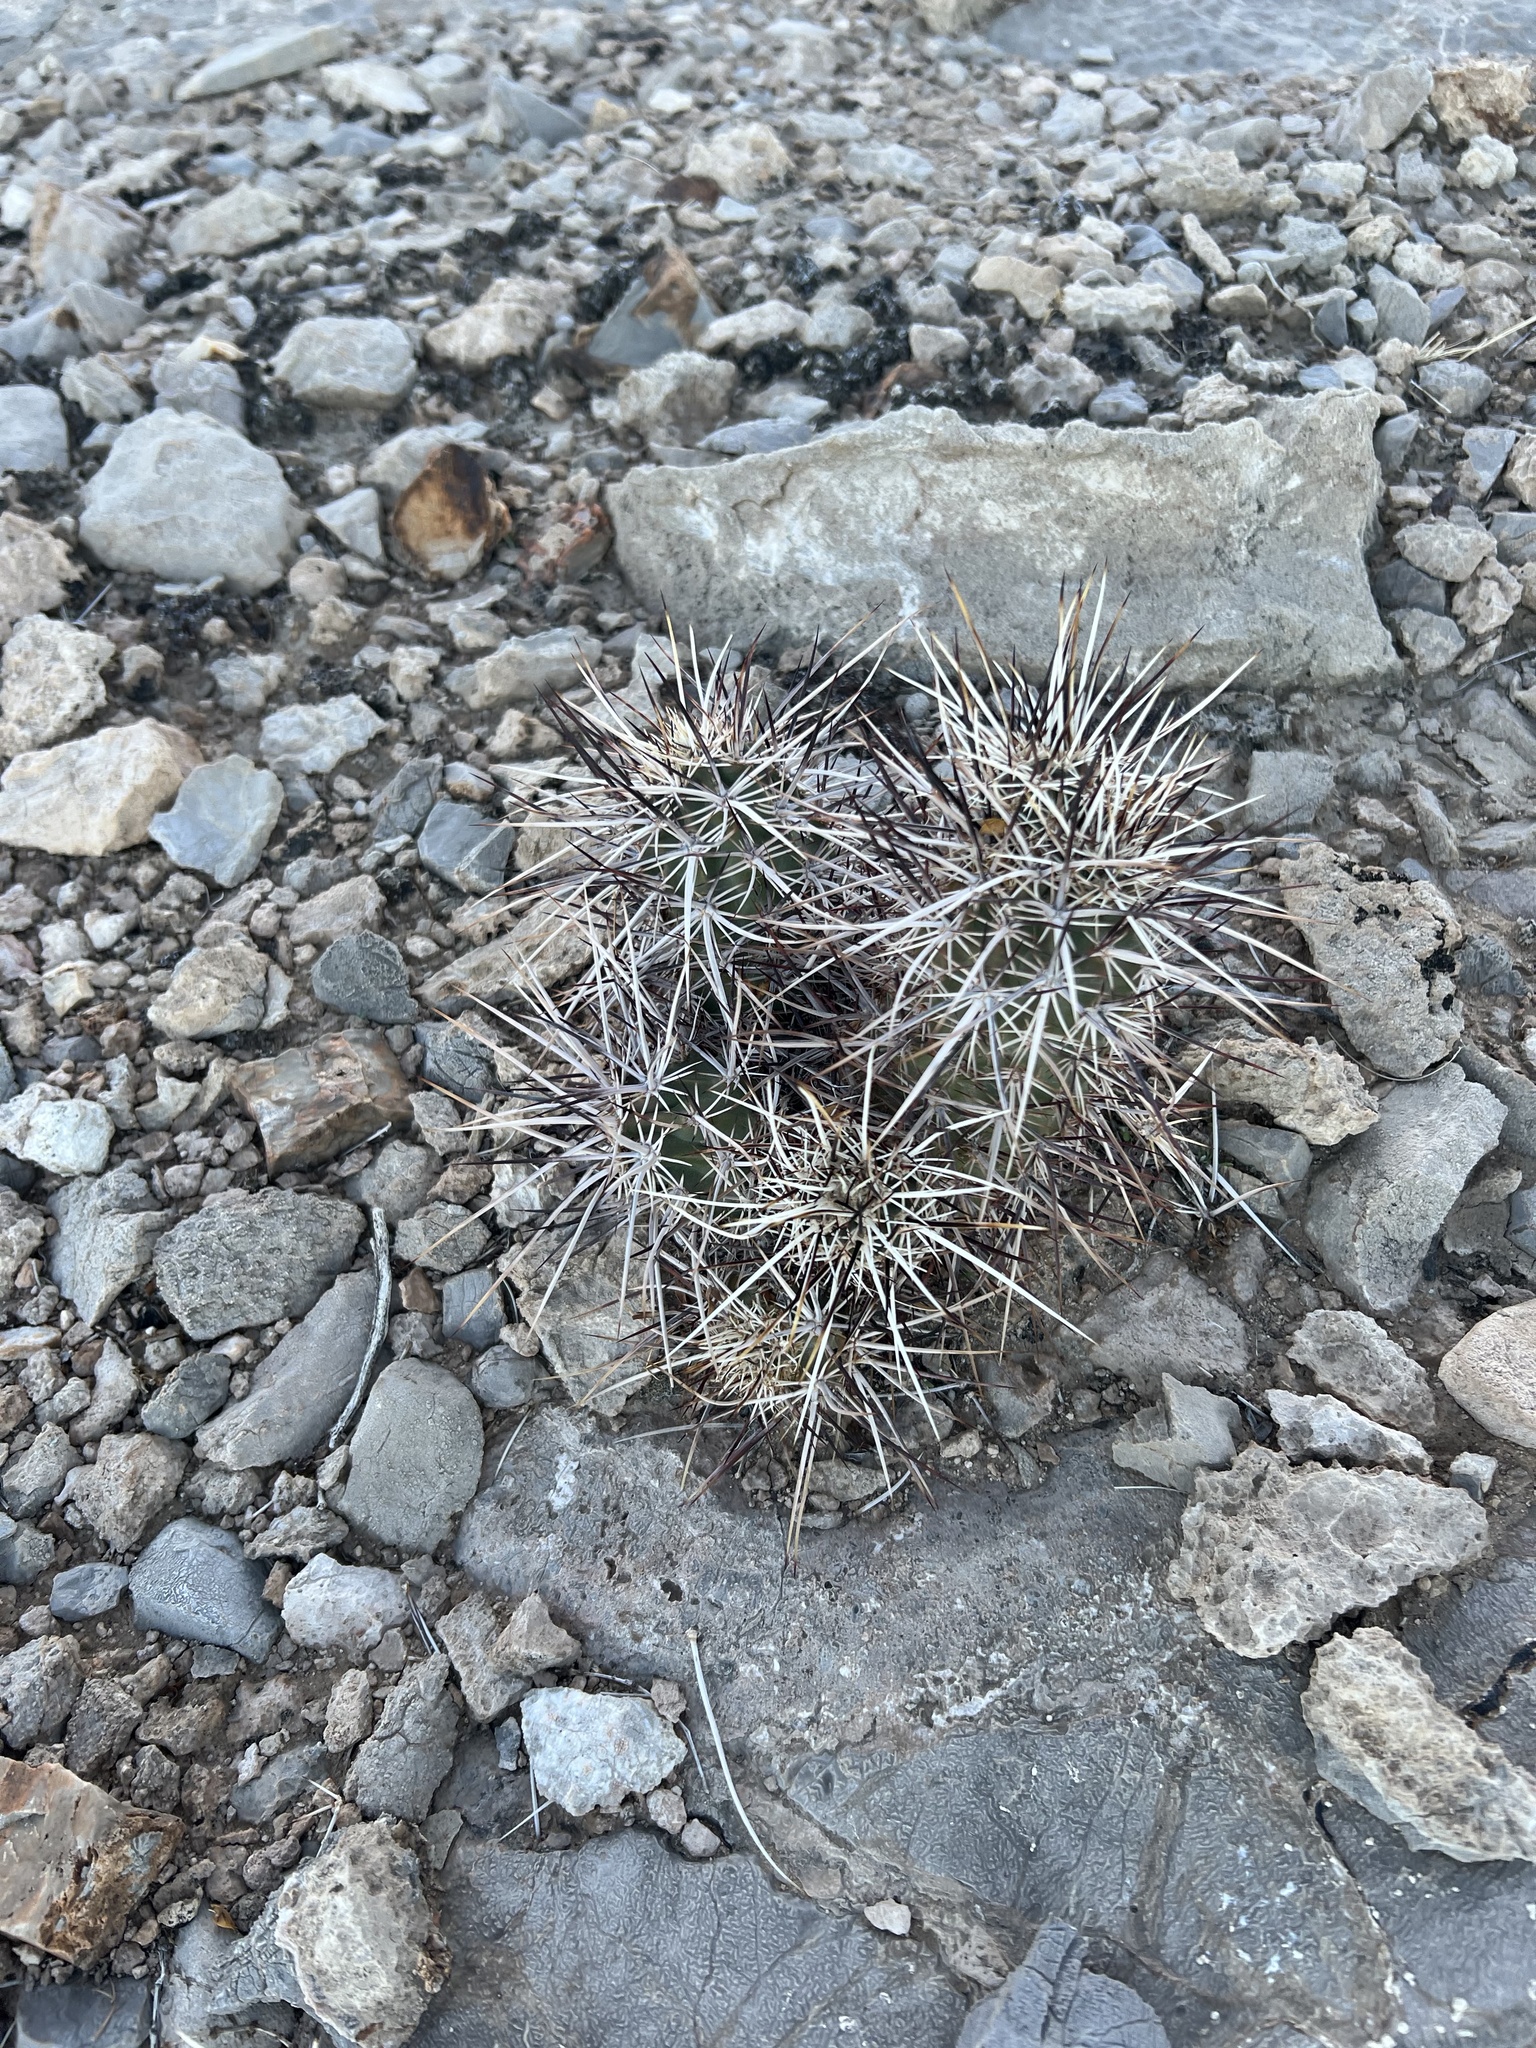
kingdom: Plantae
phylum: Tracheophyta
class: Magnoliopsida
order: Caryophyllales
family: Cactaceae
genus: Echinocereus
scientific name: Echinocereus engelmannii
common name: Engelmann's hedgehog cactus
